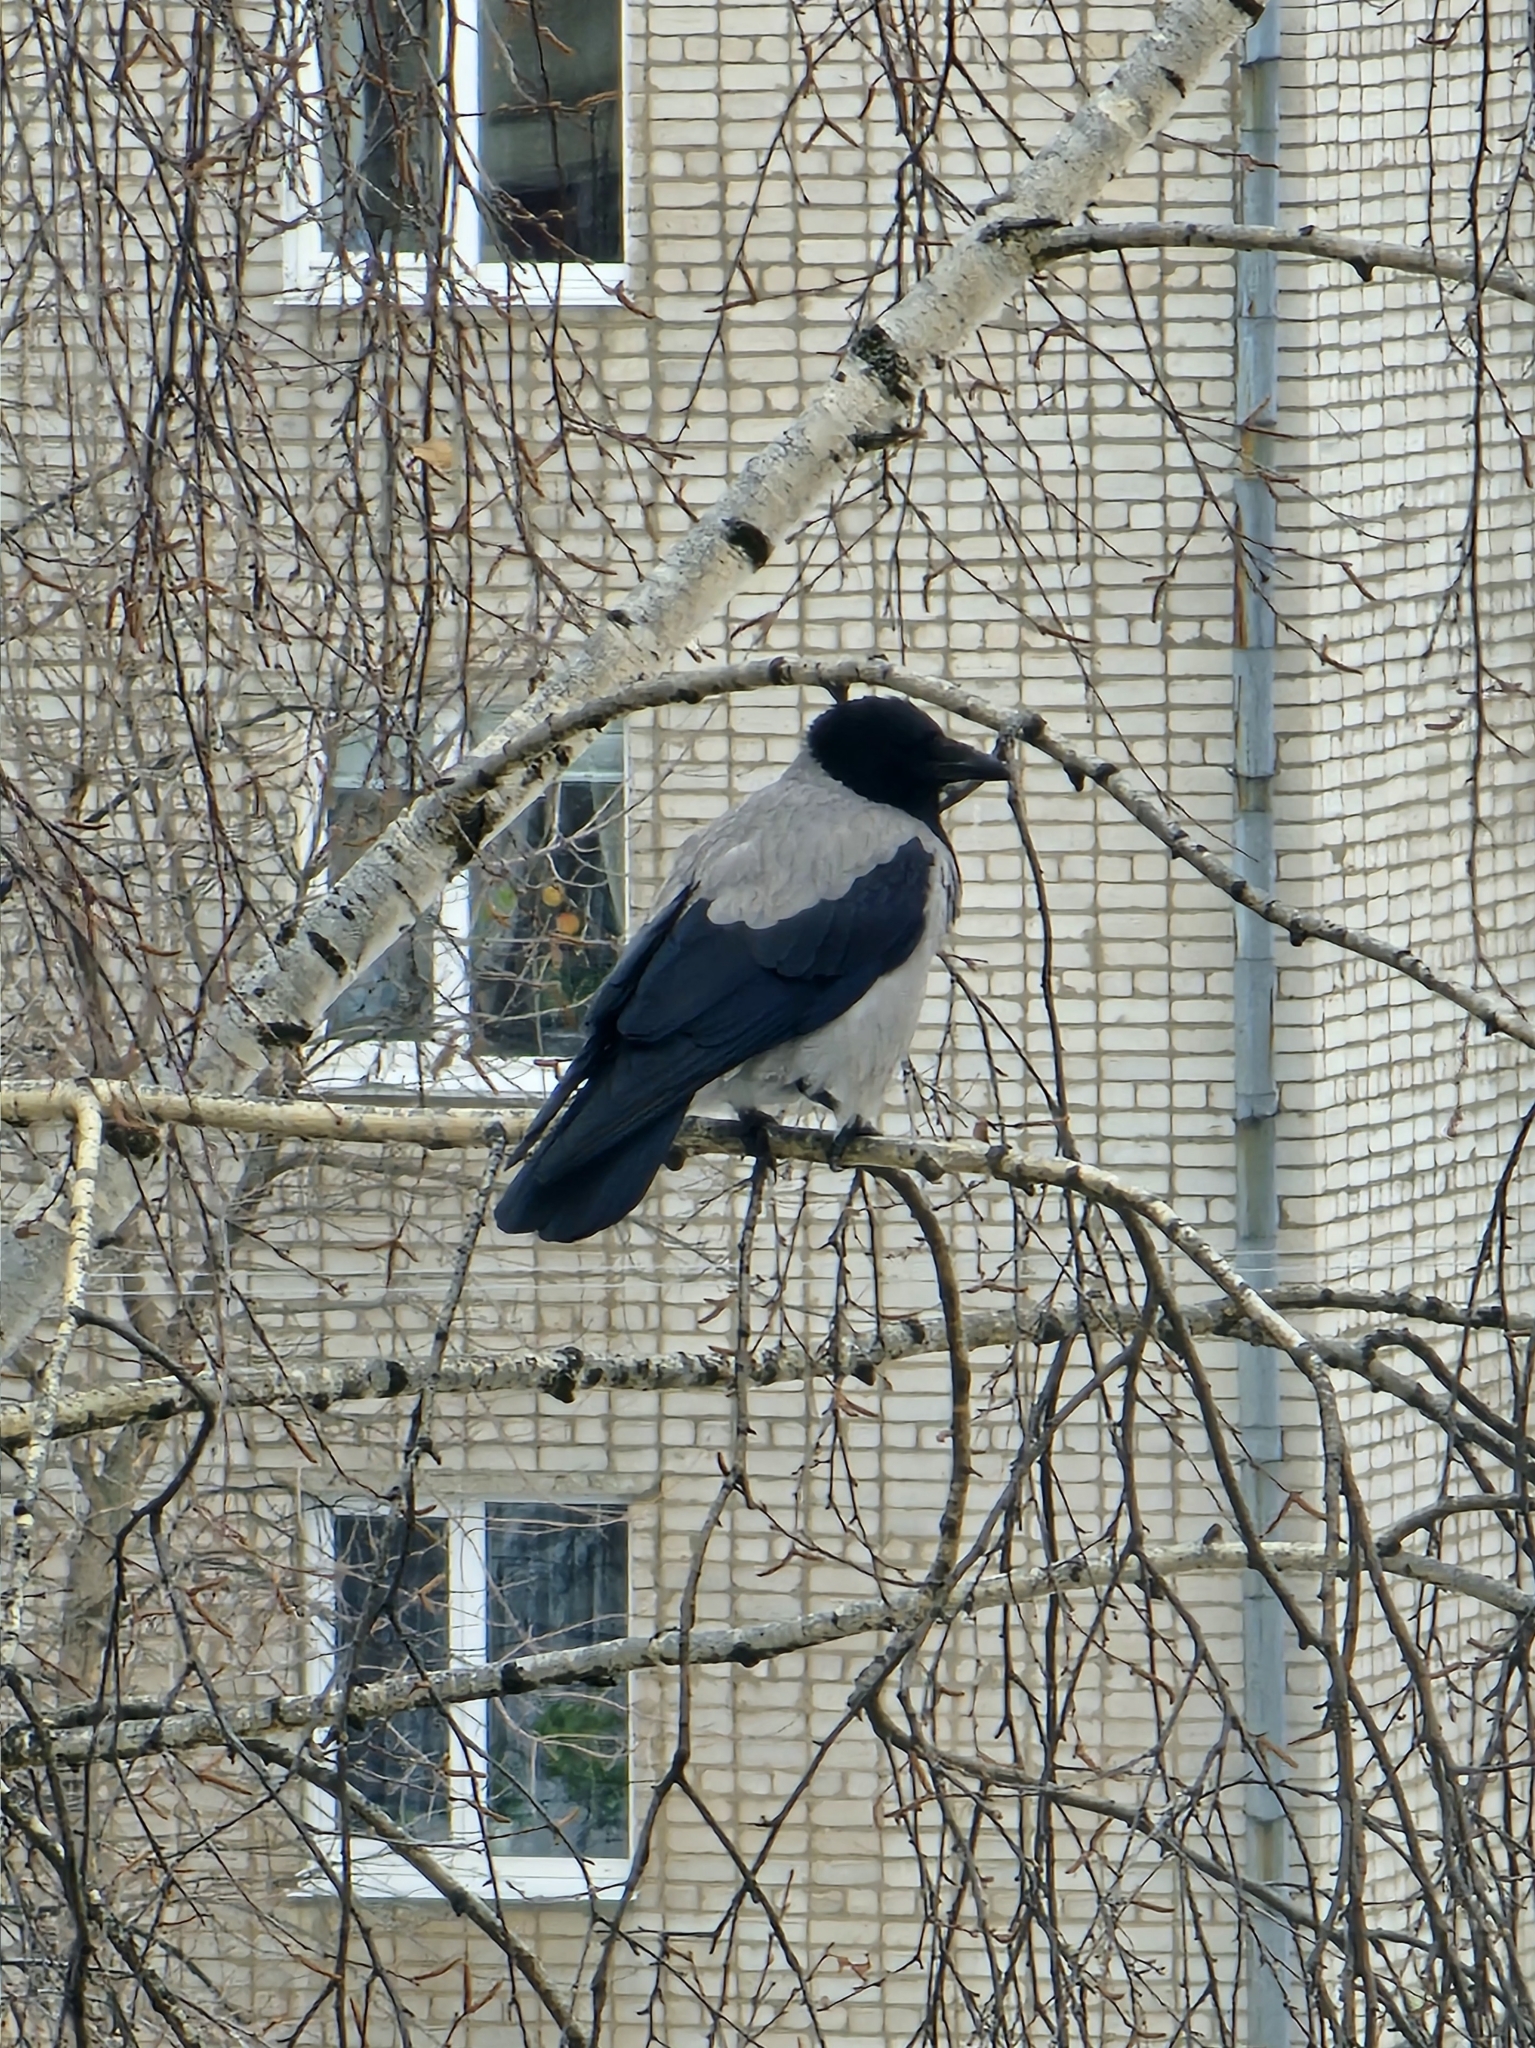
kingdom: Animalia
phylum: Chordata
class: Aves
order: Passeriformes
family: Corvidae
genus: Corvus
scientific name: Corvus cornix
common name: Hooded crow
